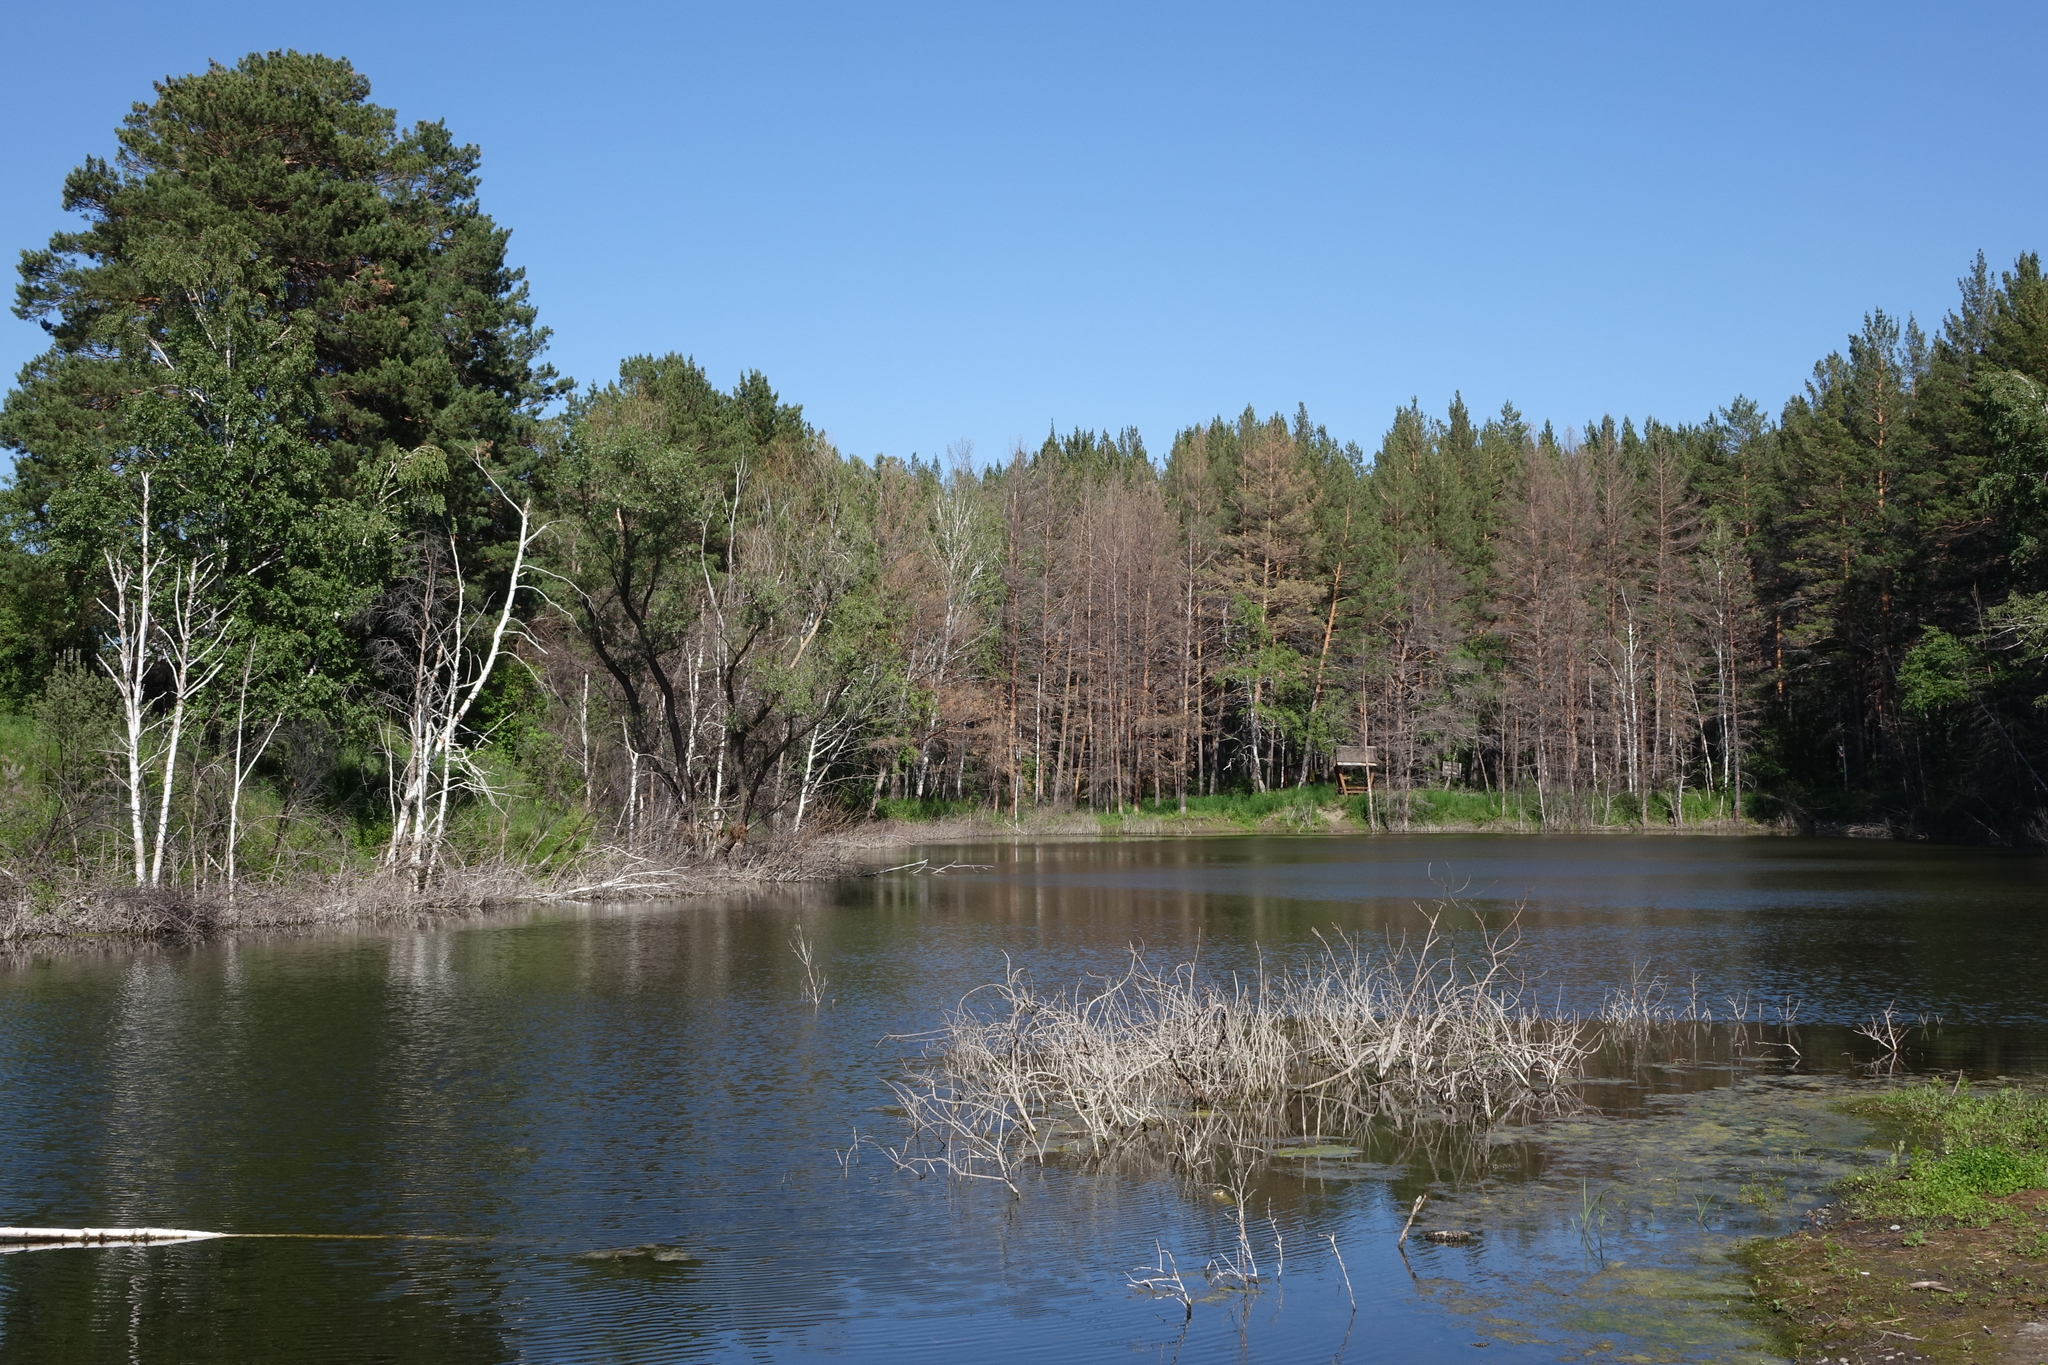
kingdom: Plantae
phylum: Tracheophyta
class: Pinopsida
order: Pinales
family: Pinaceae
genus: Pinus
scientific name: Pinus sylvestris
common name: Scots pine
